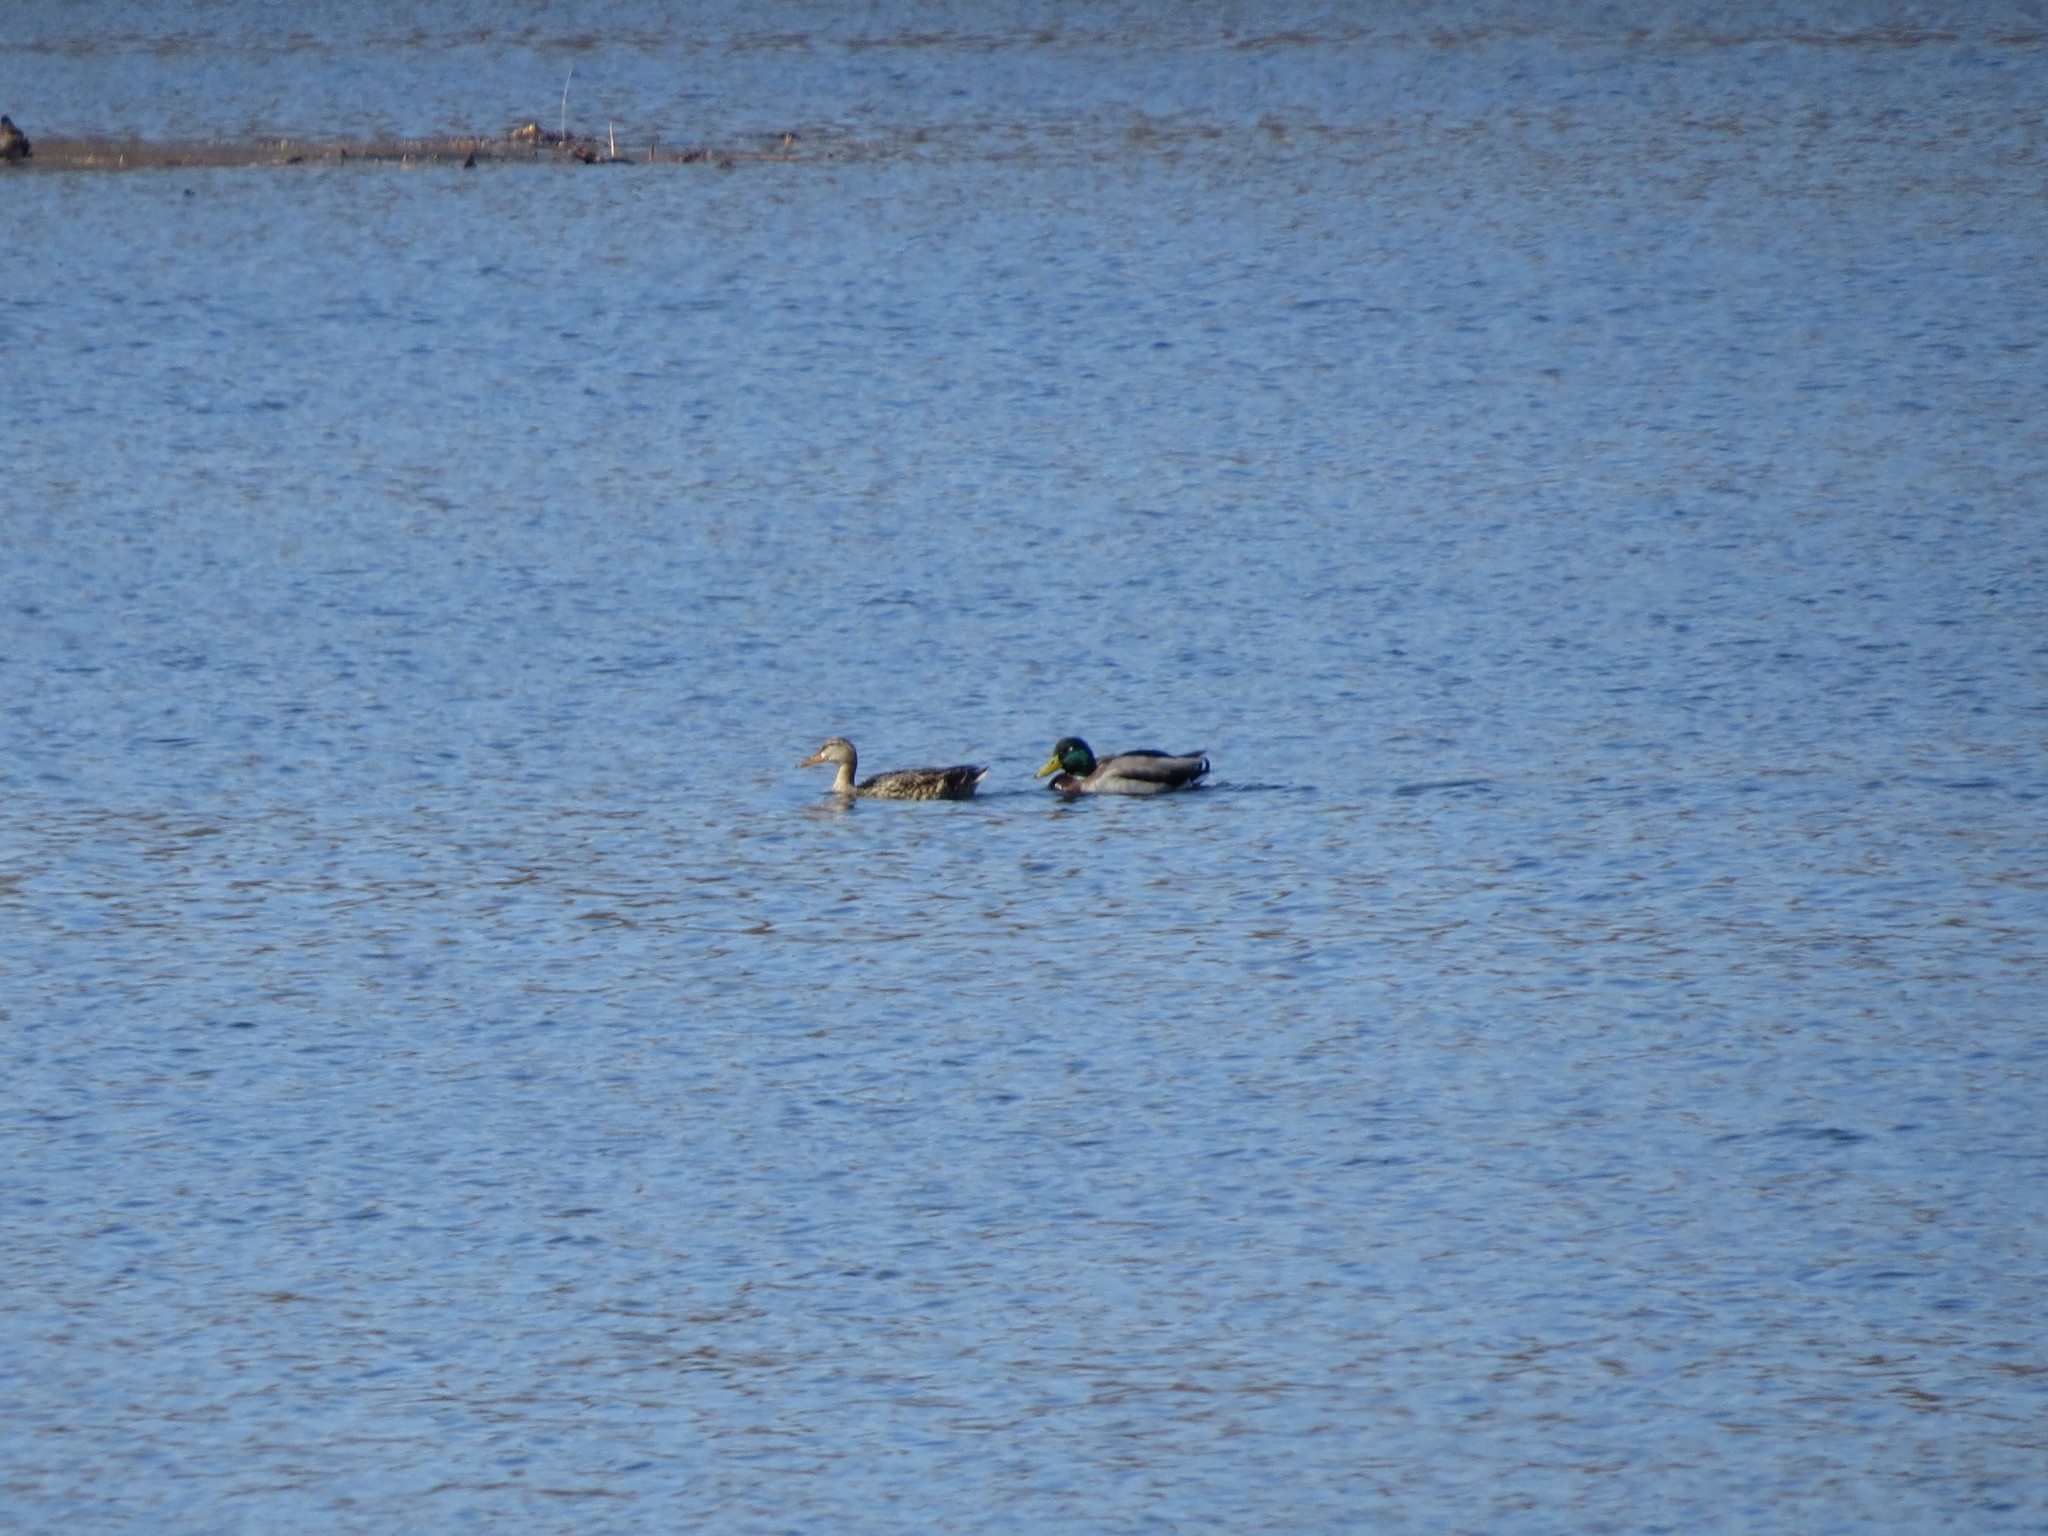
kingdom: Animalia
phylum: Chordata
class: Aves
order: Anseriformes
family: Anatidae
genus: Anas
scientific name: Anas platyrhynchos
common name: Mallard
